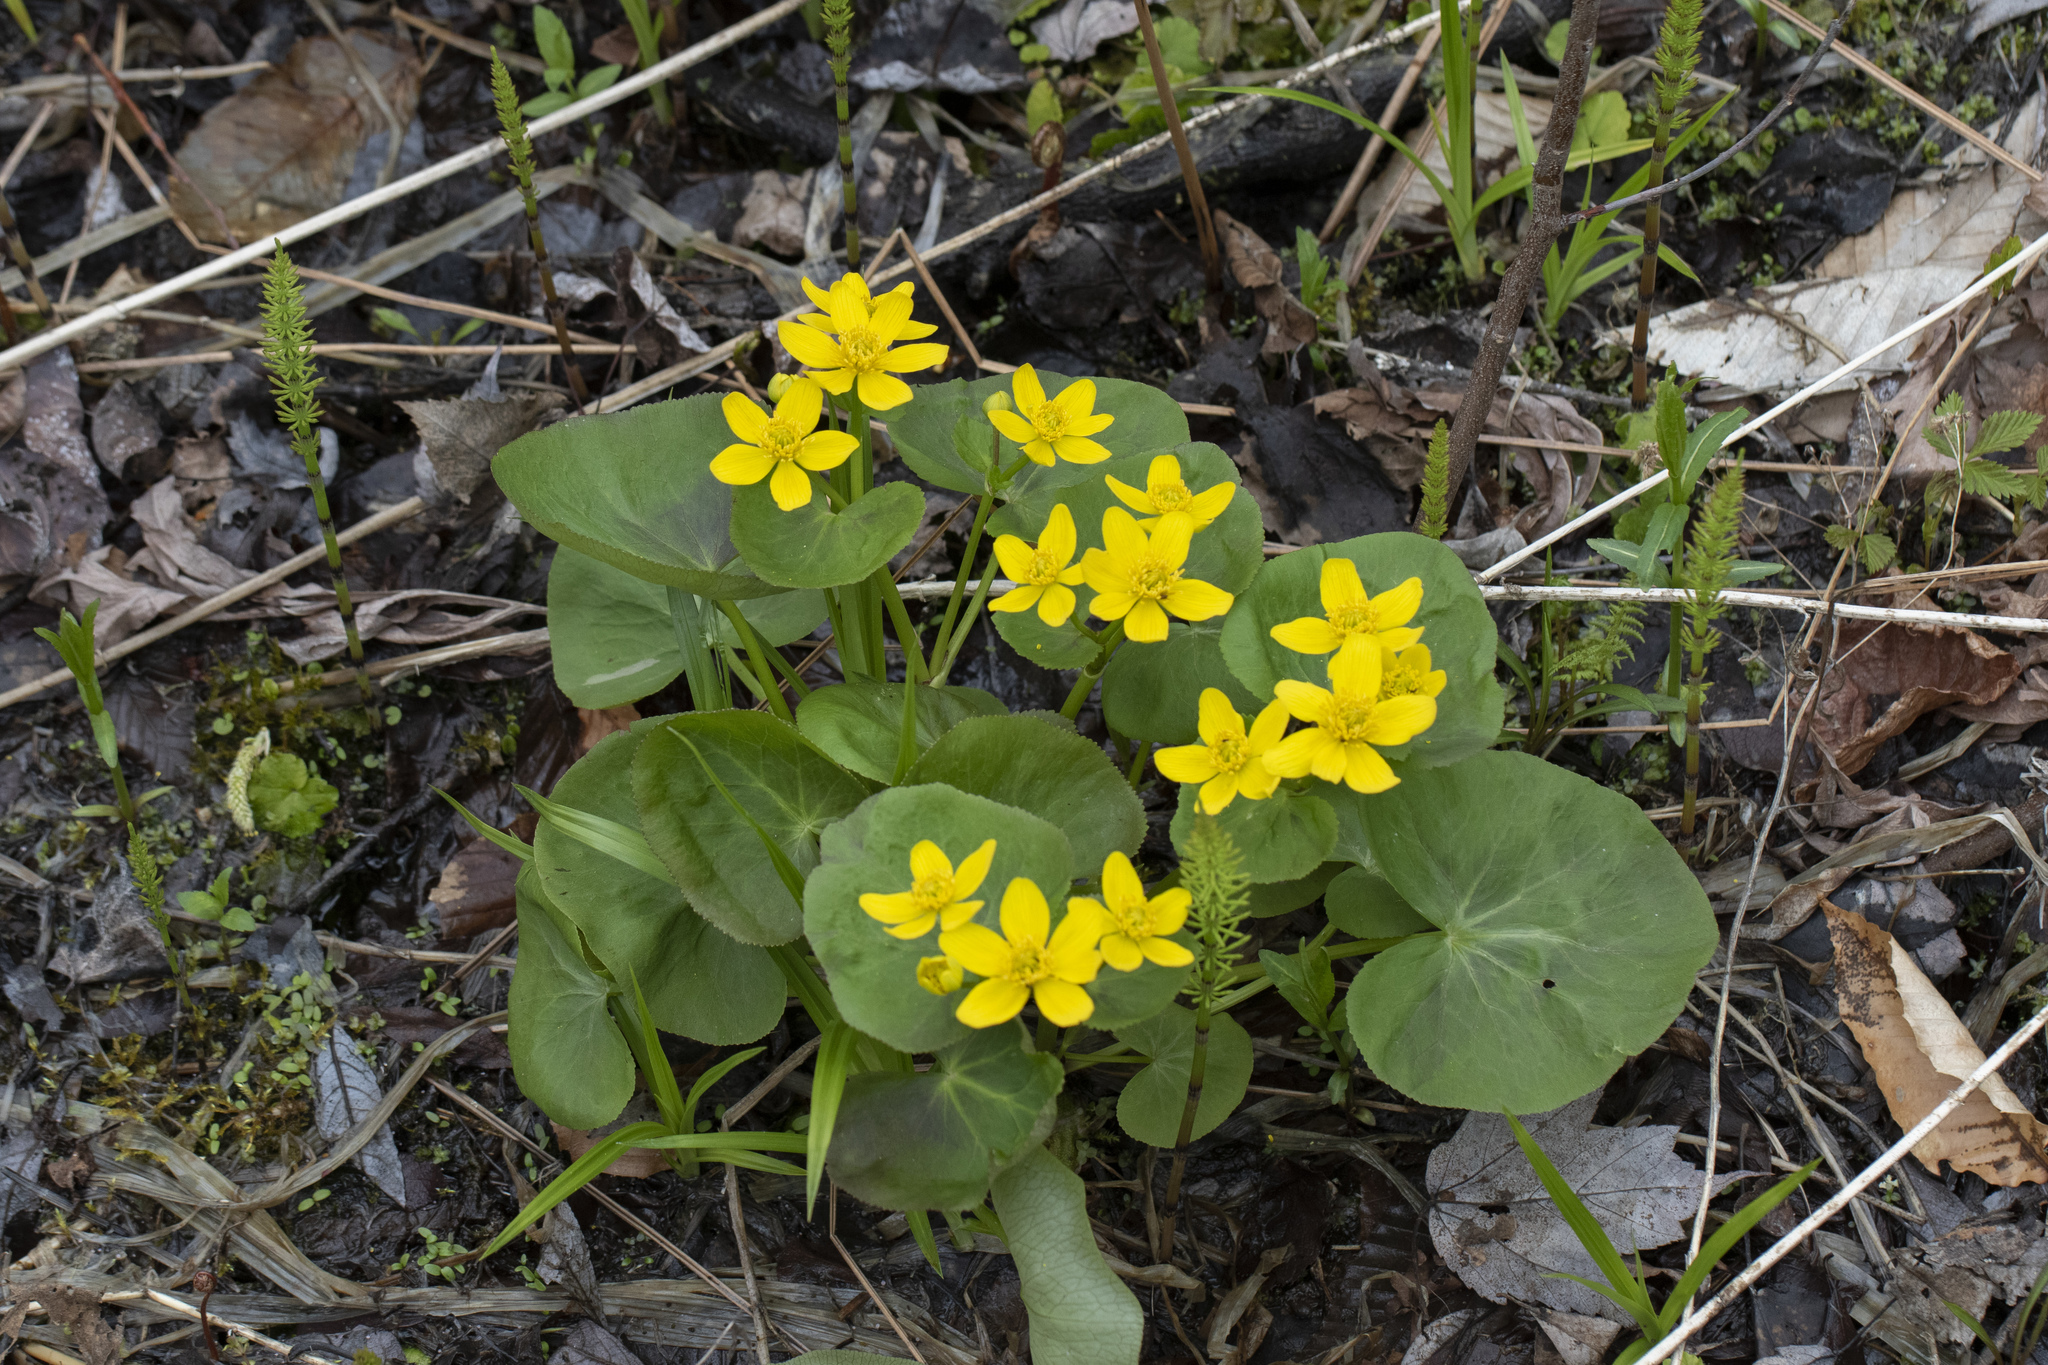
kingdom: Plantae
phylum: Tracheophyta
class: Magnoliopsida
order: Ranunculales
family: Ranunculaceae
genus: Caltha
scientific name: Caltha palustris
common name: Marsh marigold
